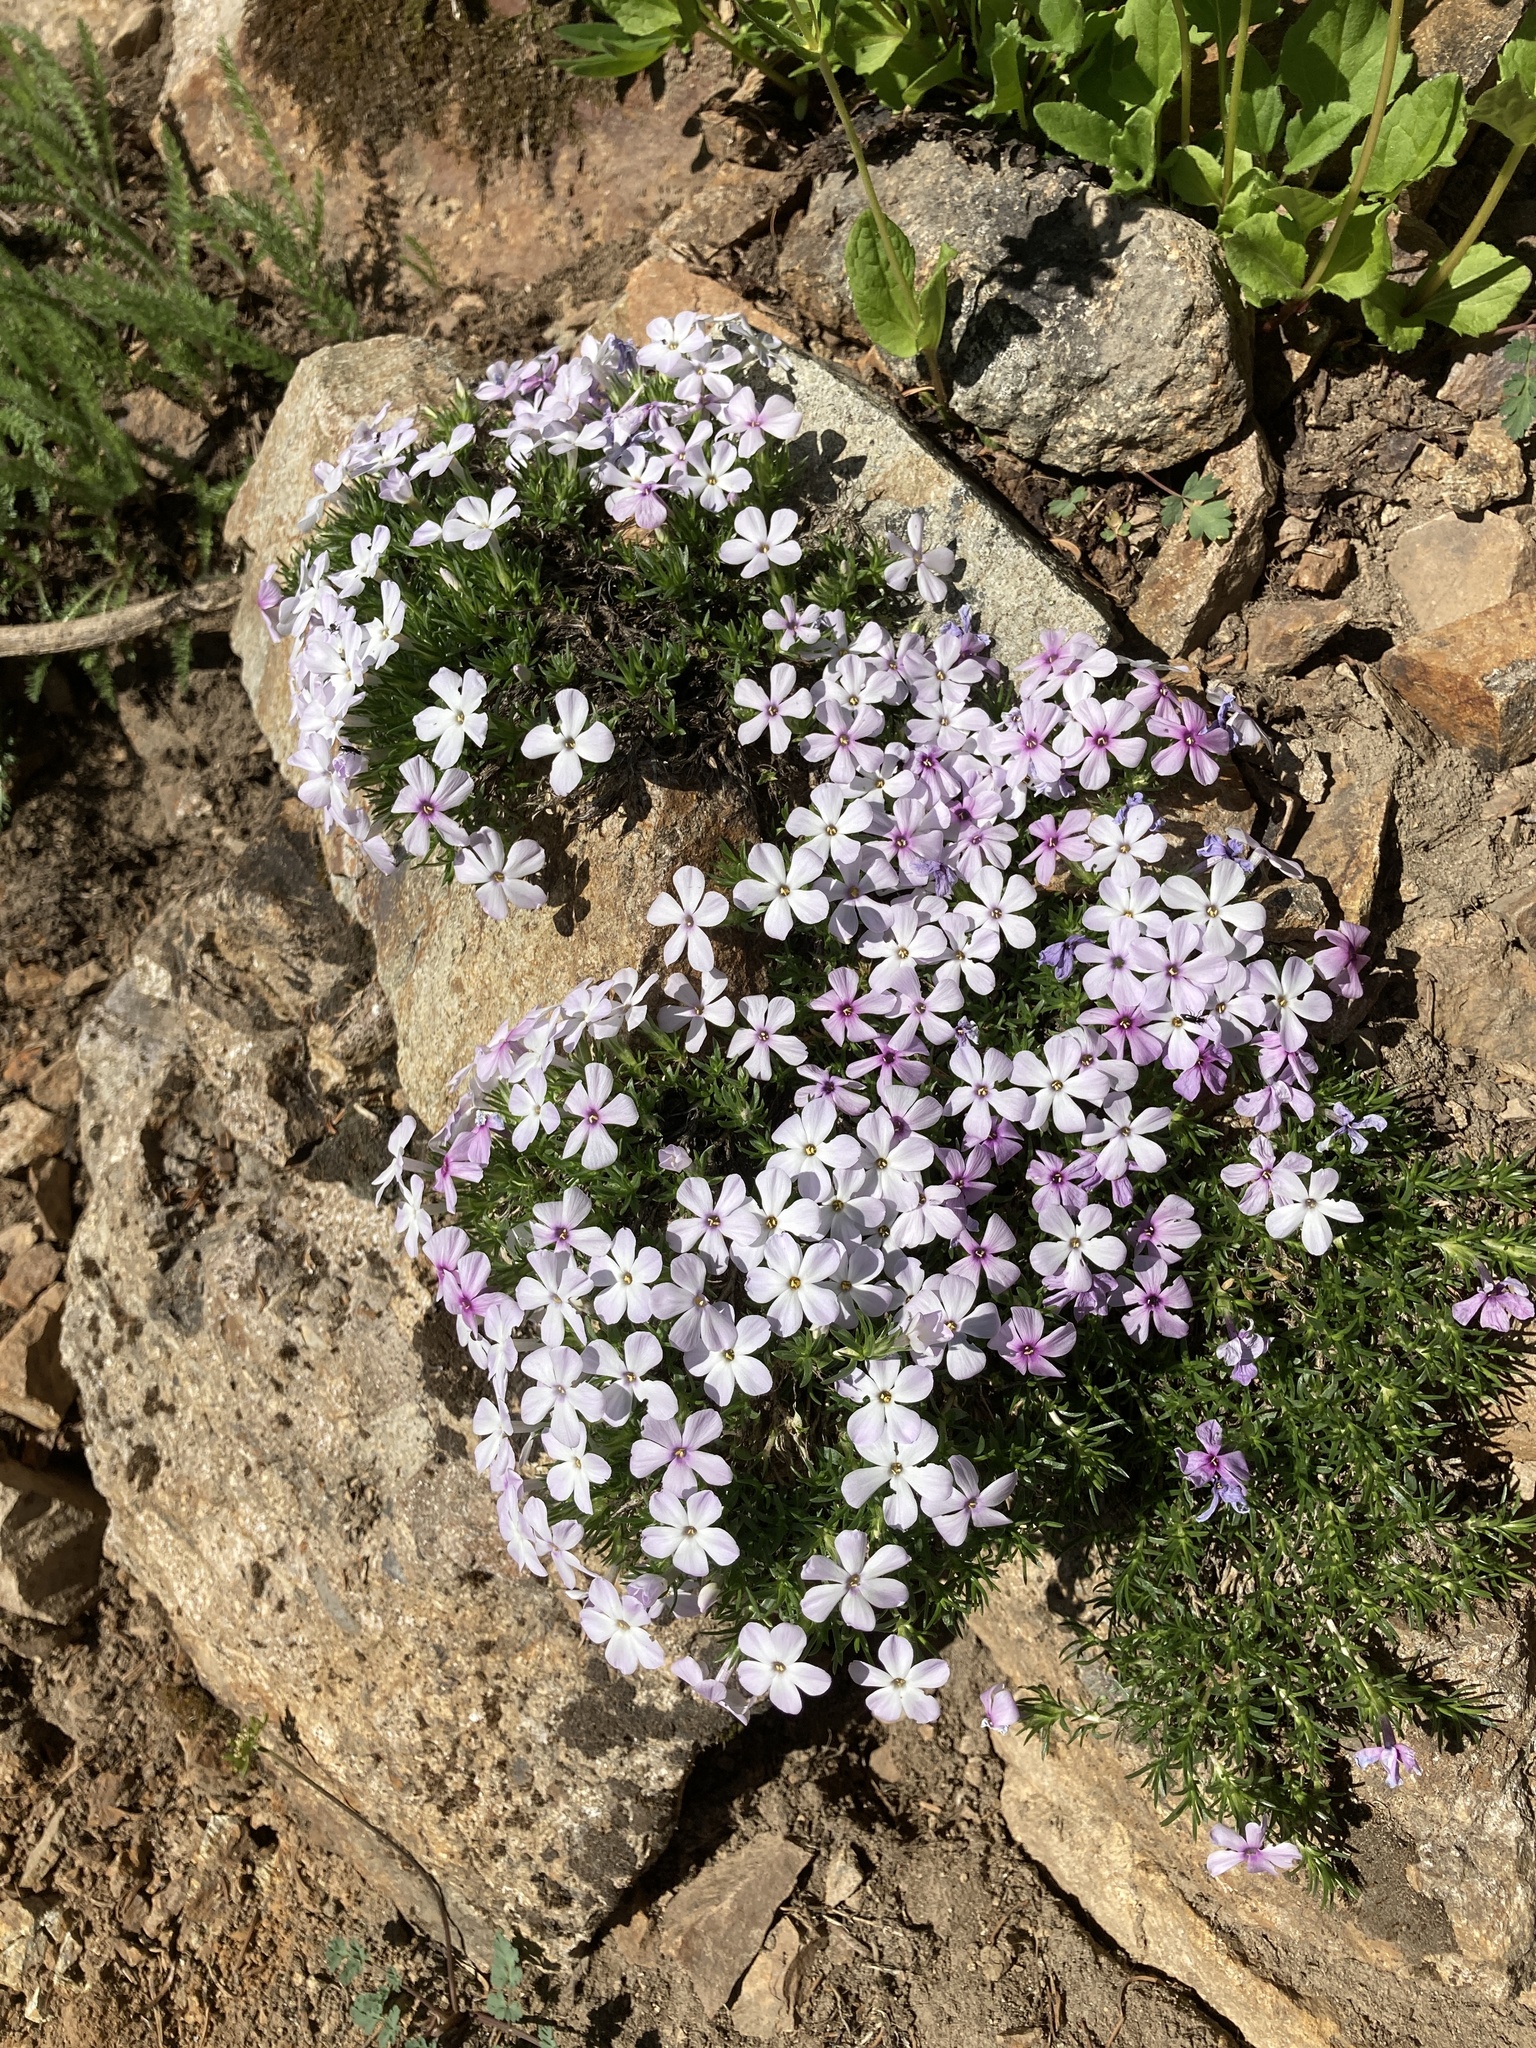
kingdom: Plantae
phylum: Tracheophyta
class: Magnoliopsida
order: Ericales
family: Polemoniaceae
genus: Phlox
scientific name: Phlox diffusa
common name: Mat phlox
